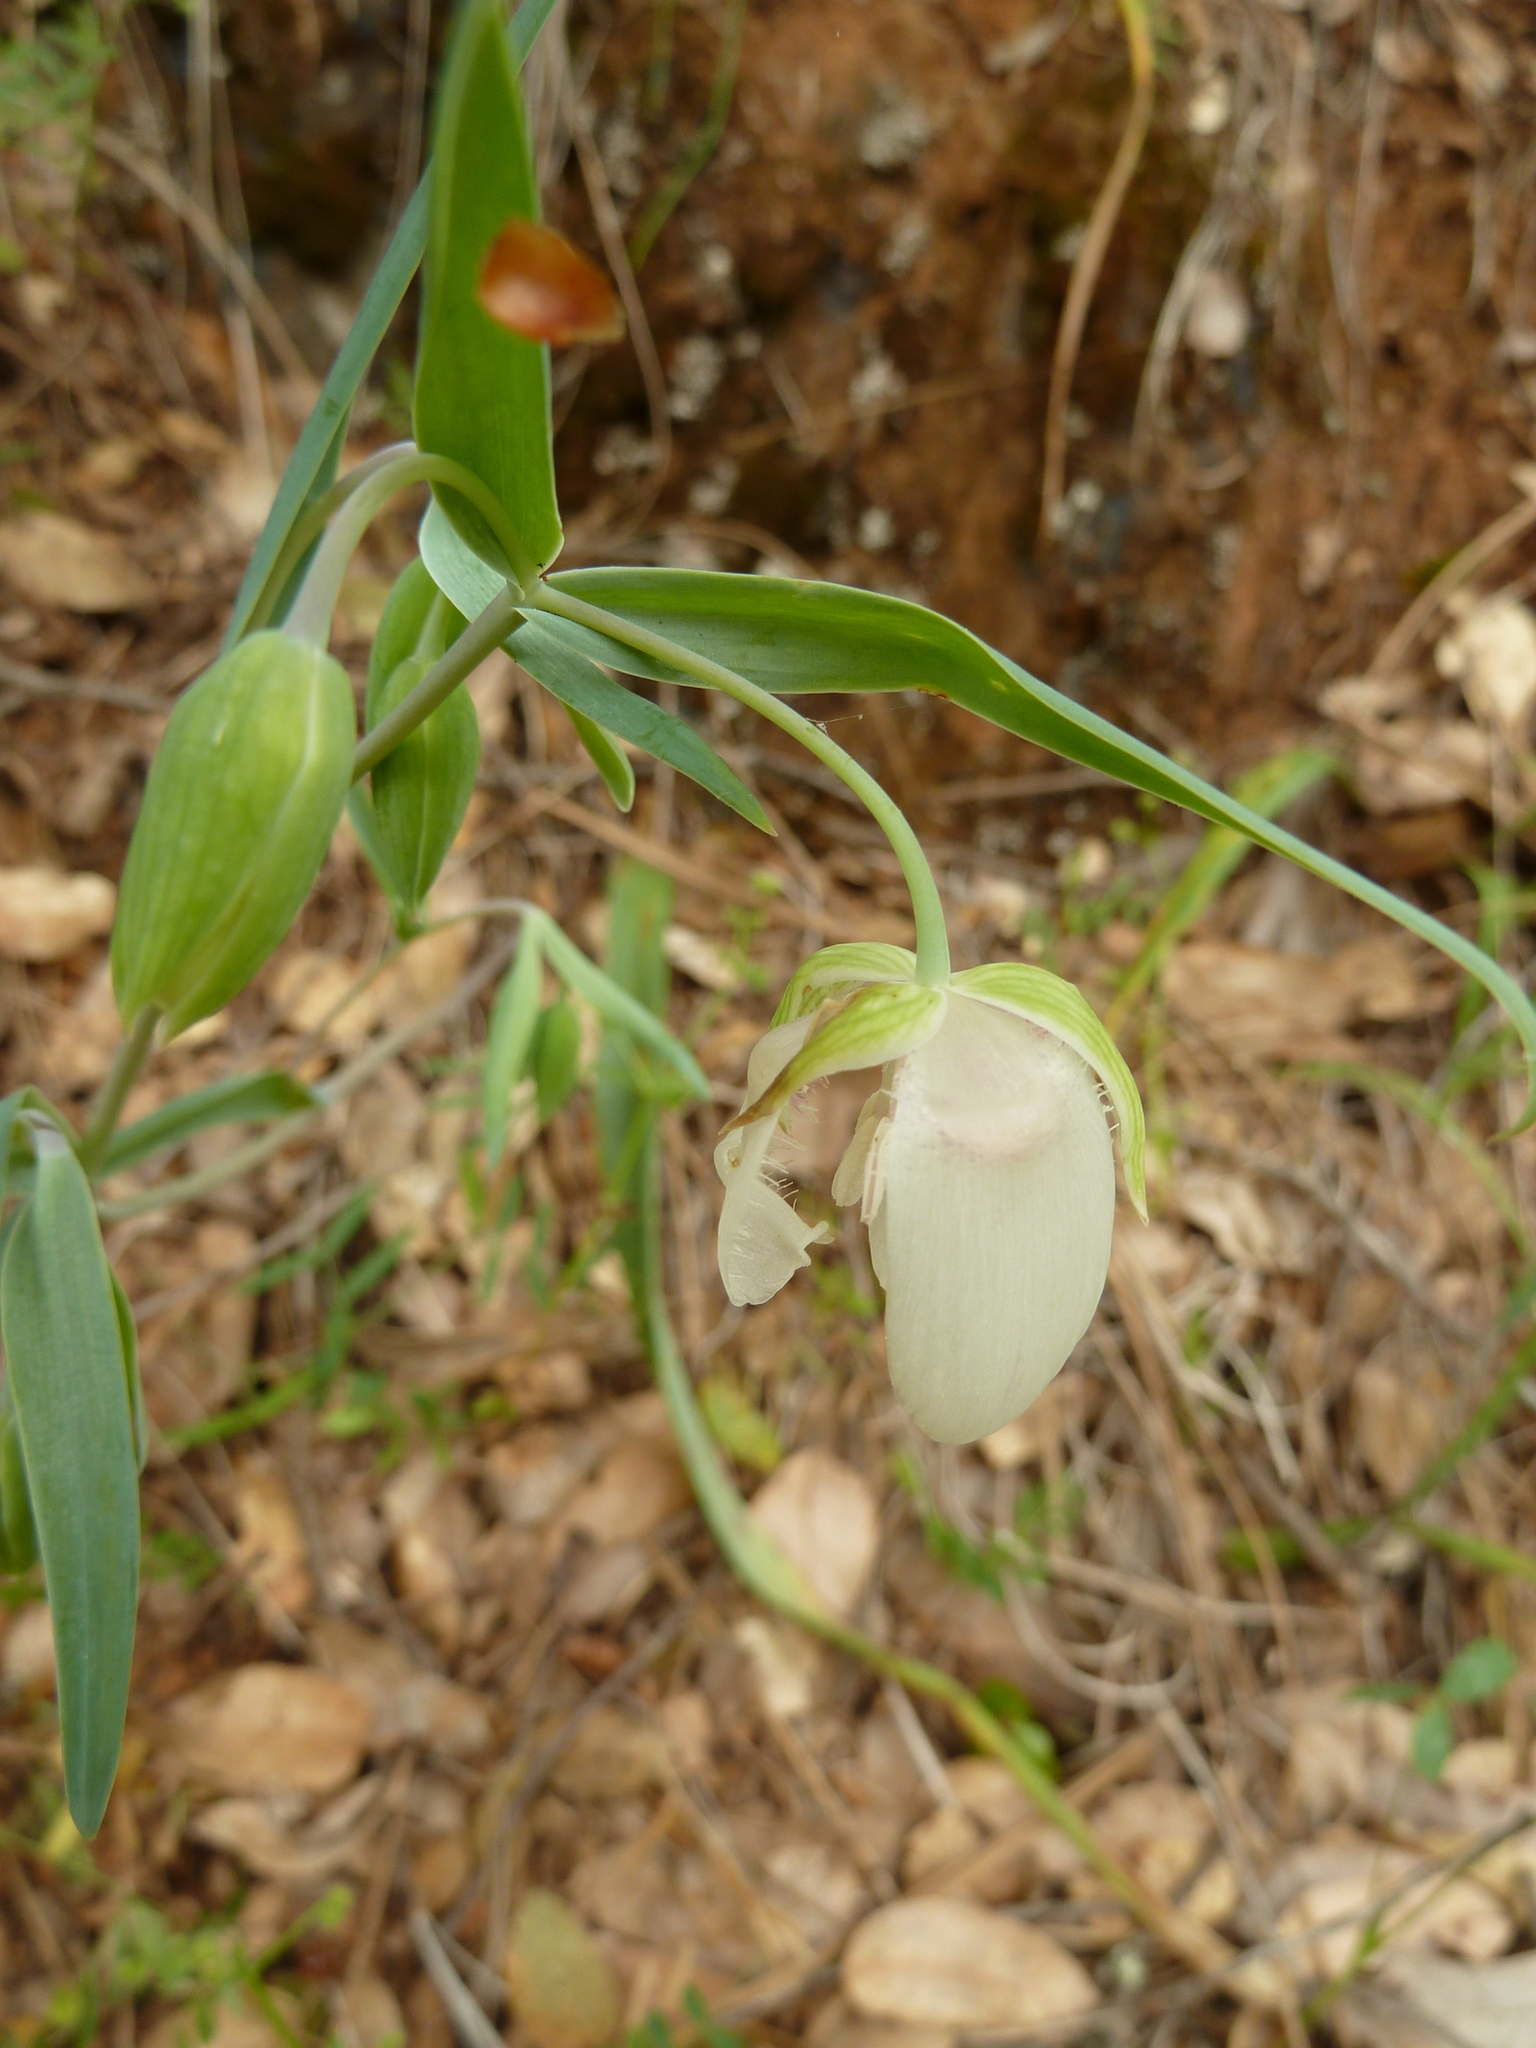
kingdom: Plantae
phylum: Tracheophyta
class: Liliopsida
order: Liliales
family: Liliaceae
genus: Calochortus
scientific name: Calochortus albus
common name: Fairy-lantern
